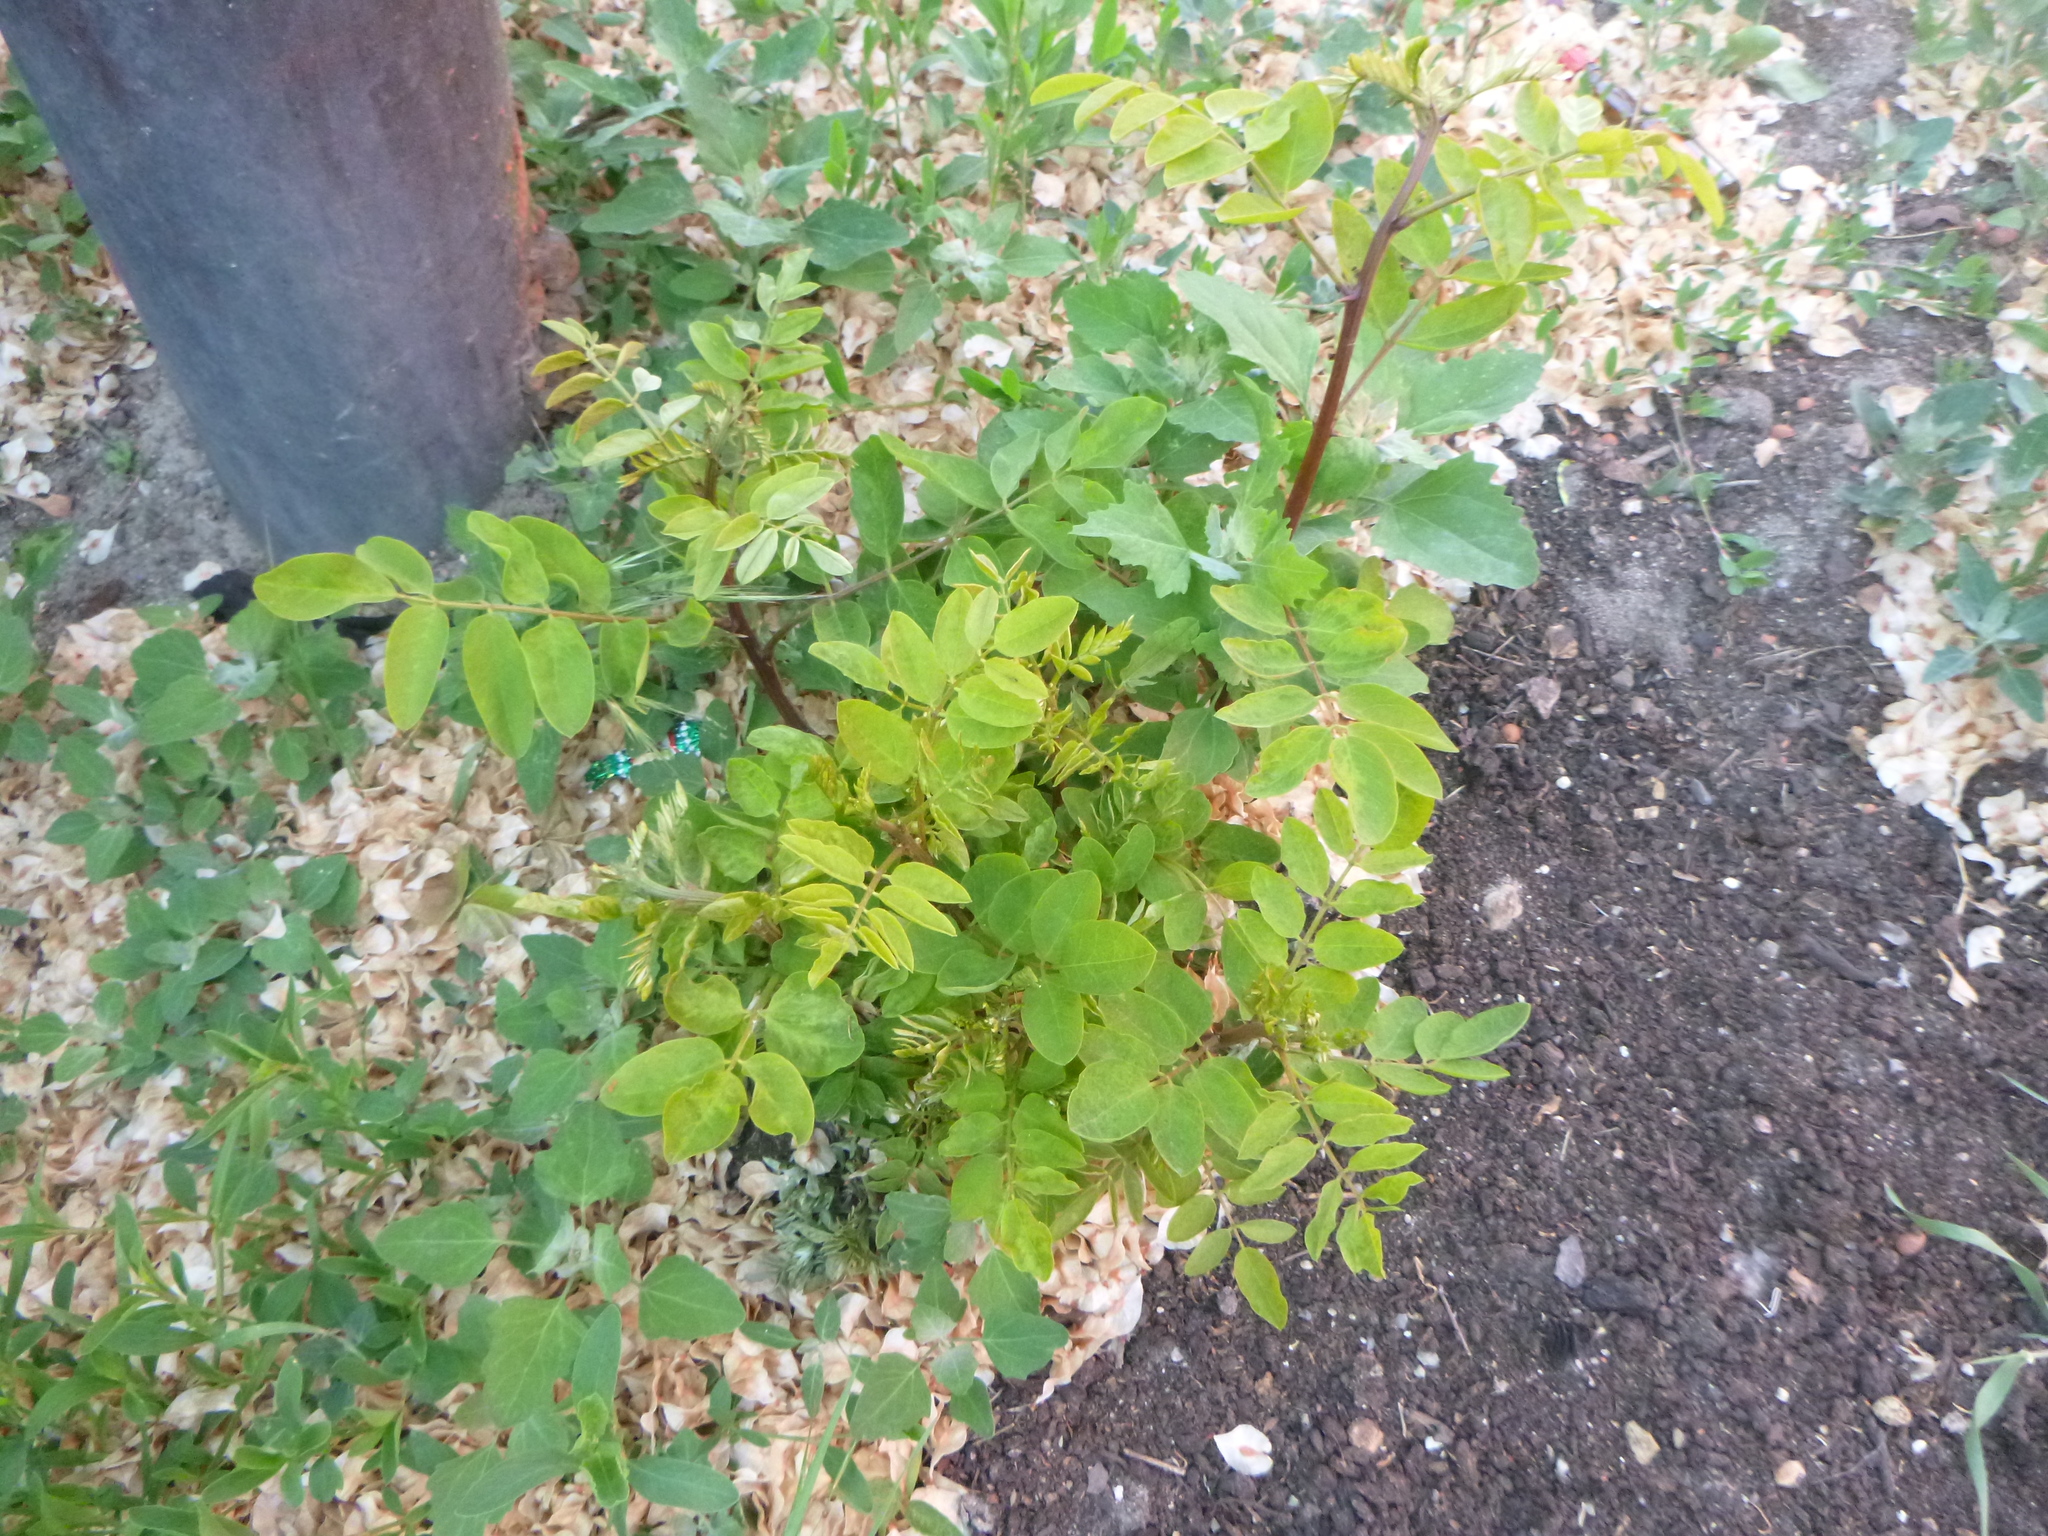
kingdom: Plantae
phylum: Tracheophyta
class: Magnoliopsida
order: Fabales
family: Fabaceae
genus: Robinia
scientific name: Robinia pseudoacacia
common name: Black locust
